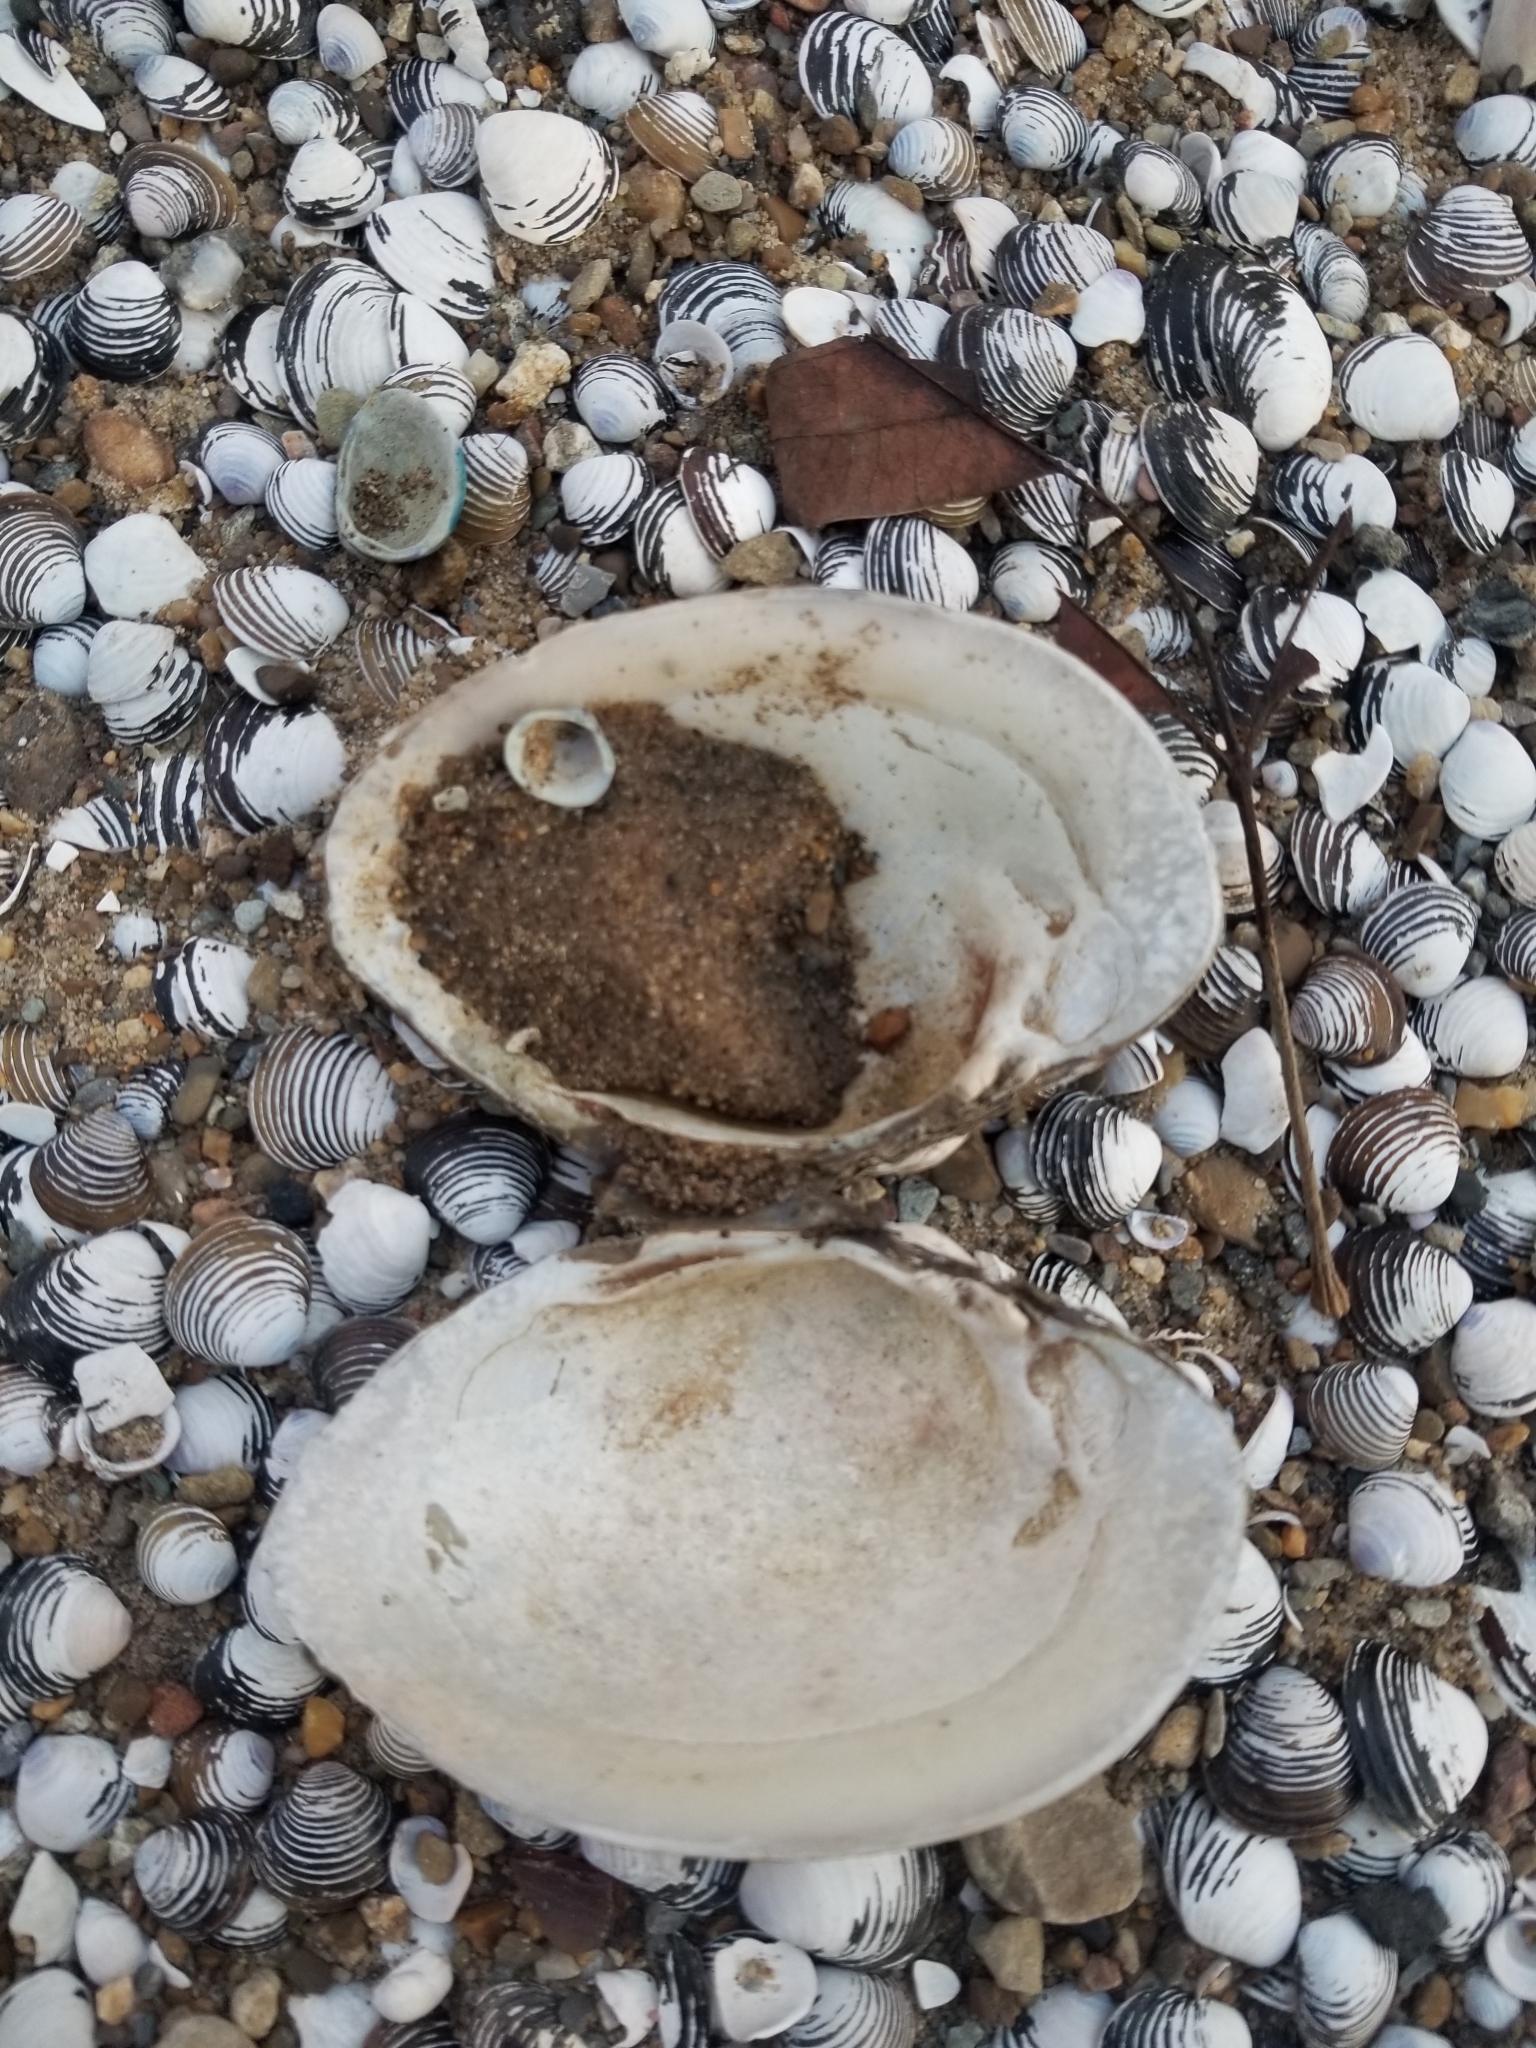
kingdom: Animalia
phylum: Mollusca
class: Bivalvia
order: Unionida
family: Unionidae
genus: Lampsilis
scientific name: Lampsilis cariosa
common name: Yellow lampmussel
